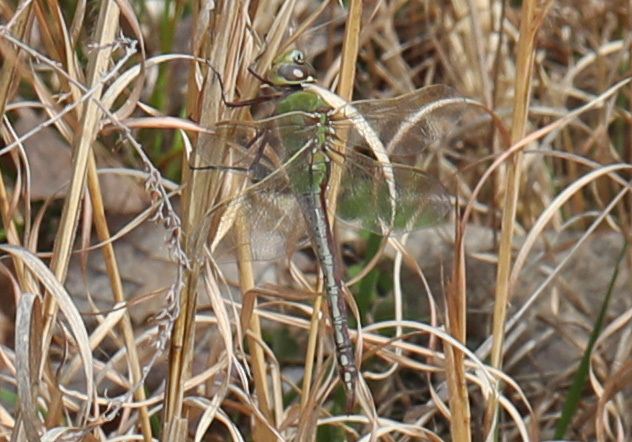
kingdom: Animalia
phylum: Arthropoda
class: Insecta
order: Odonata
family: Aeshnidae
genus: Anax
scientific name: Anax junius
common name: Common green darner
